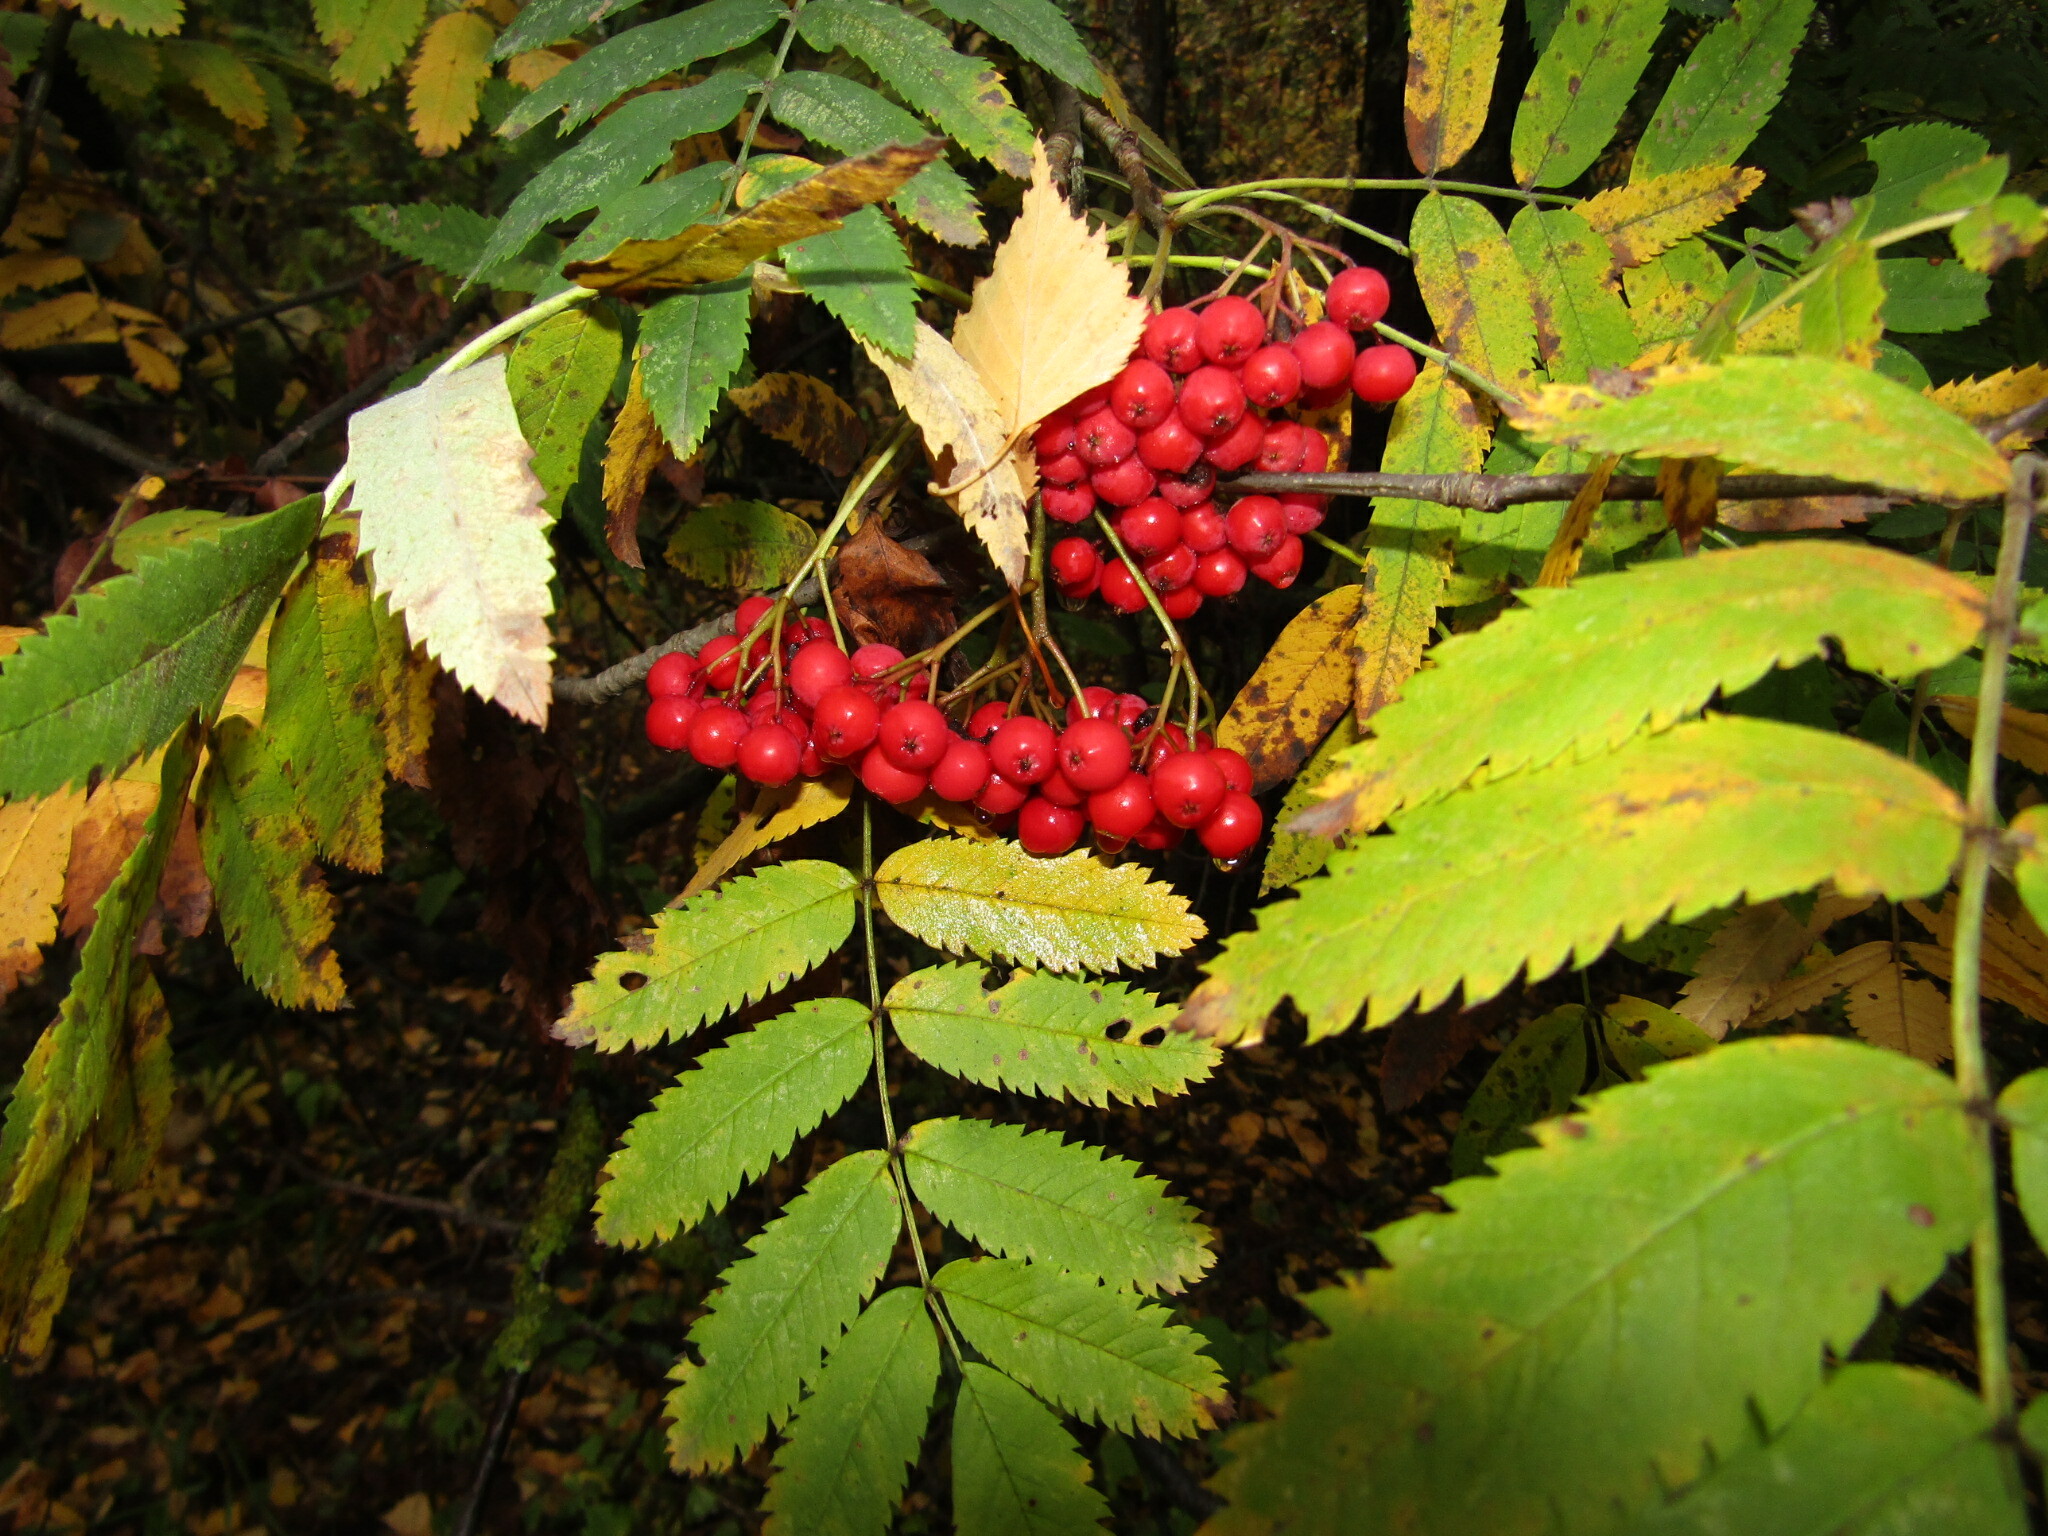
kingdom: Plantae
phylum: Tracheophyta
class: Magnoliopsida
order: Rosales
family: Rosaceae
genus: Sorbus
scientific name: Sorbus aucuparia
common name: Rowan
